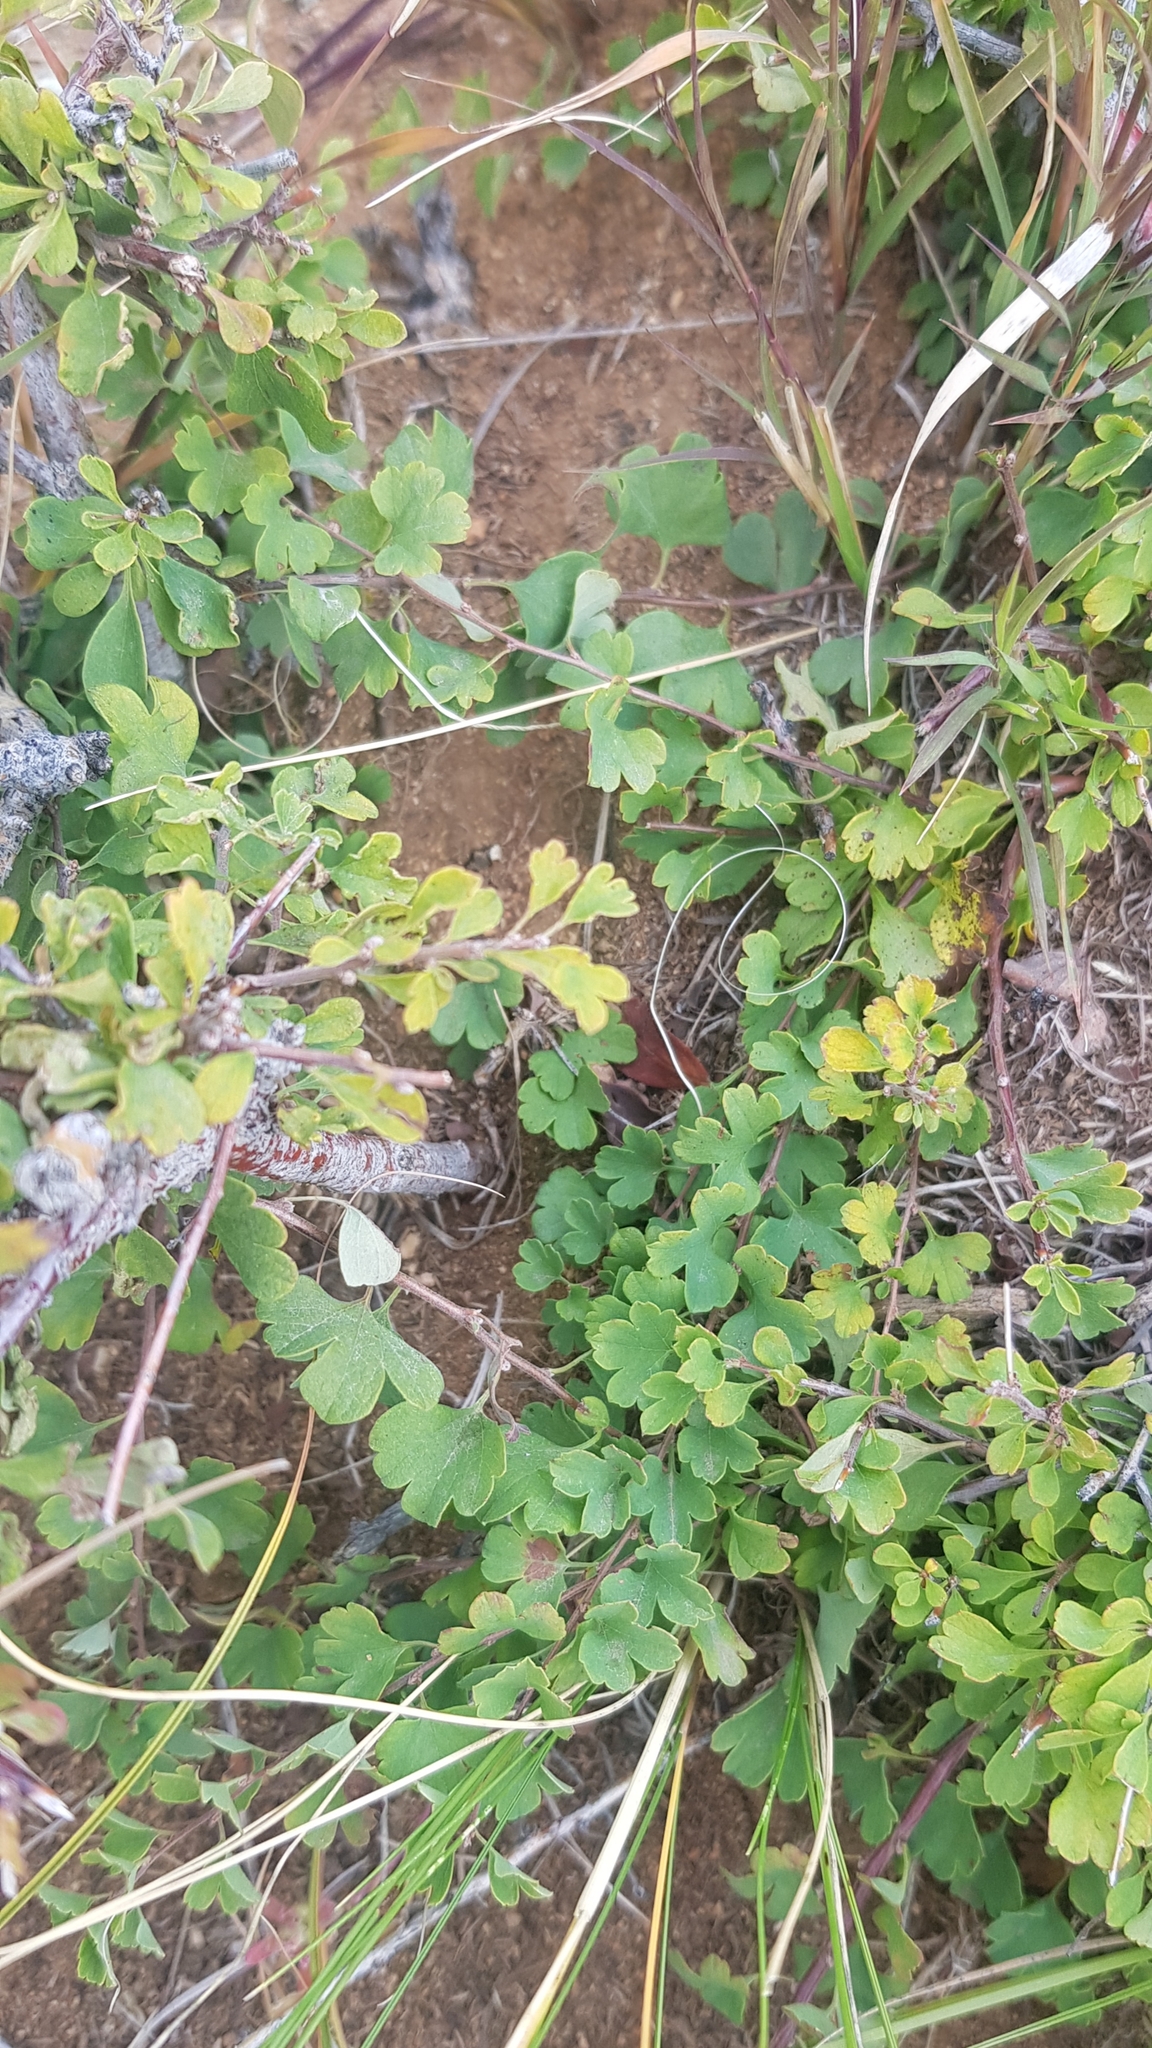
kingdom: Plantae
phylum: Tracheophyta
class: Magnoliopsida
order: Rosales
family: Rosaceae
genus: Spiraea
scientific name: Spiraea aquilegifolia
